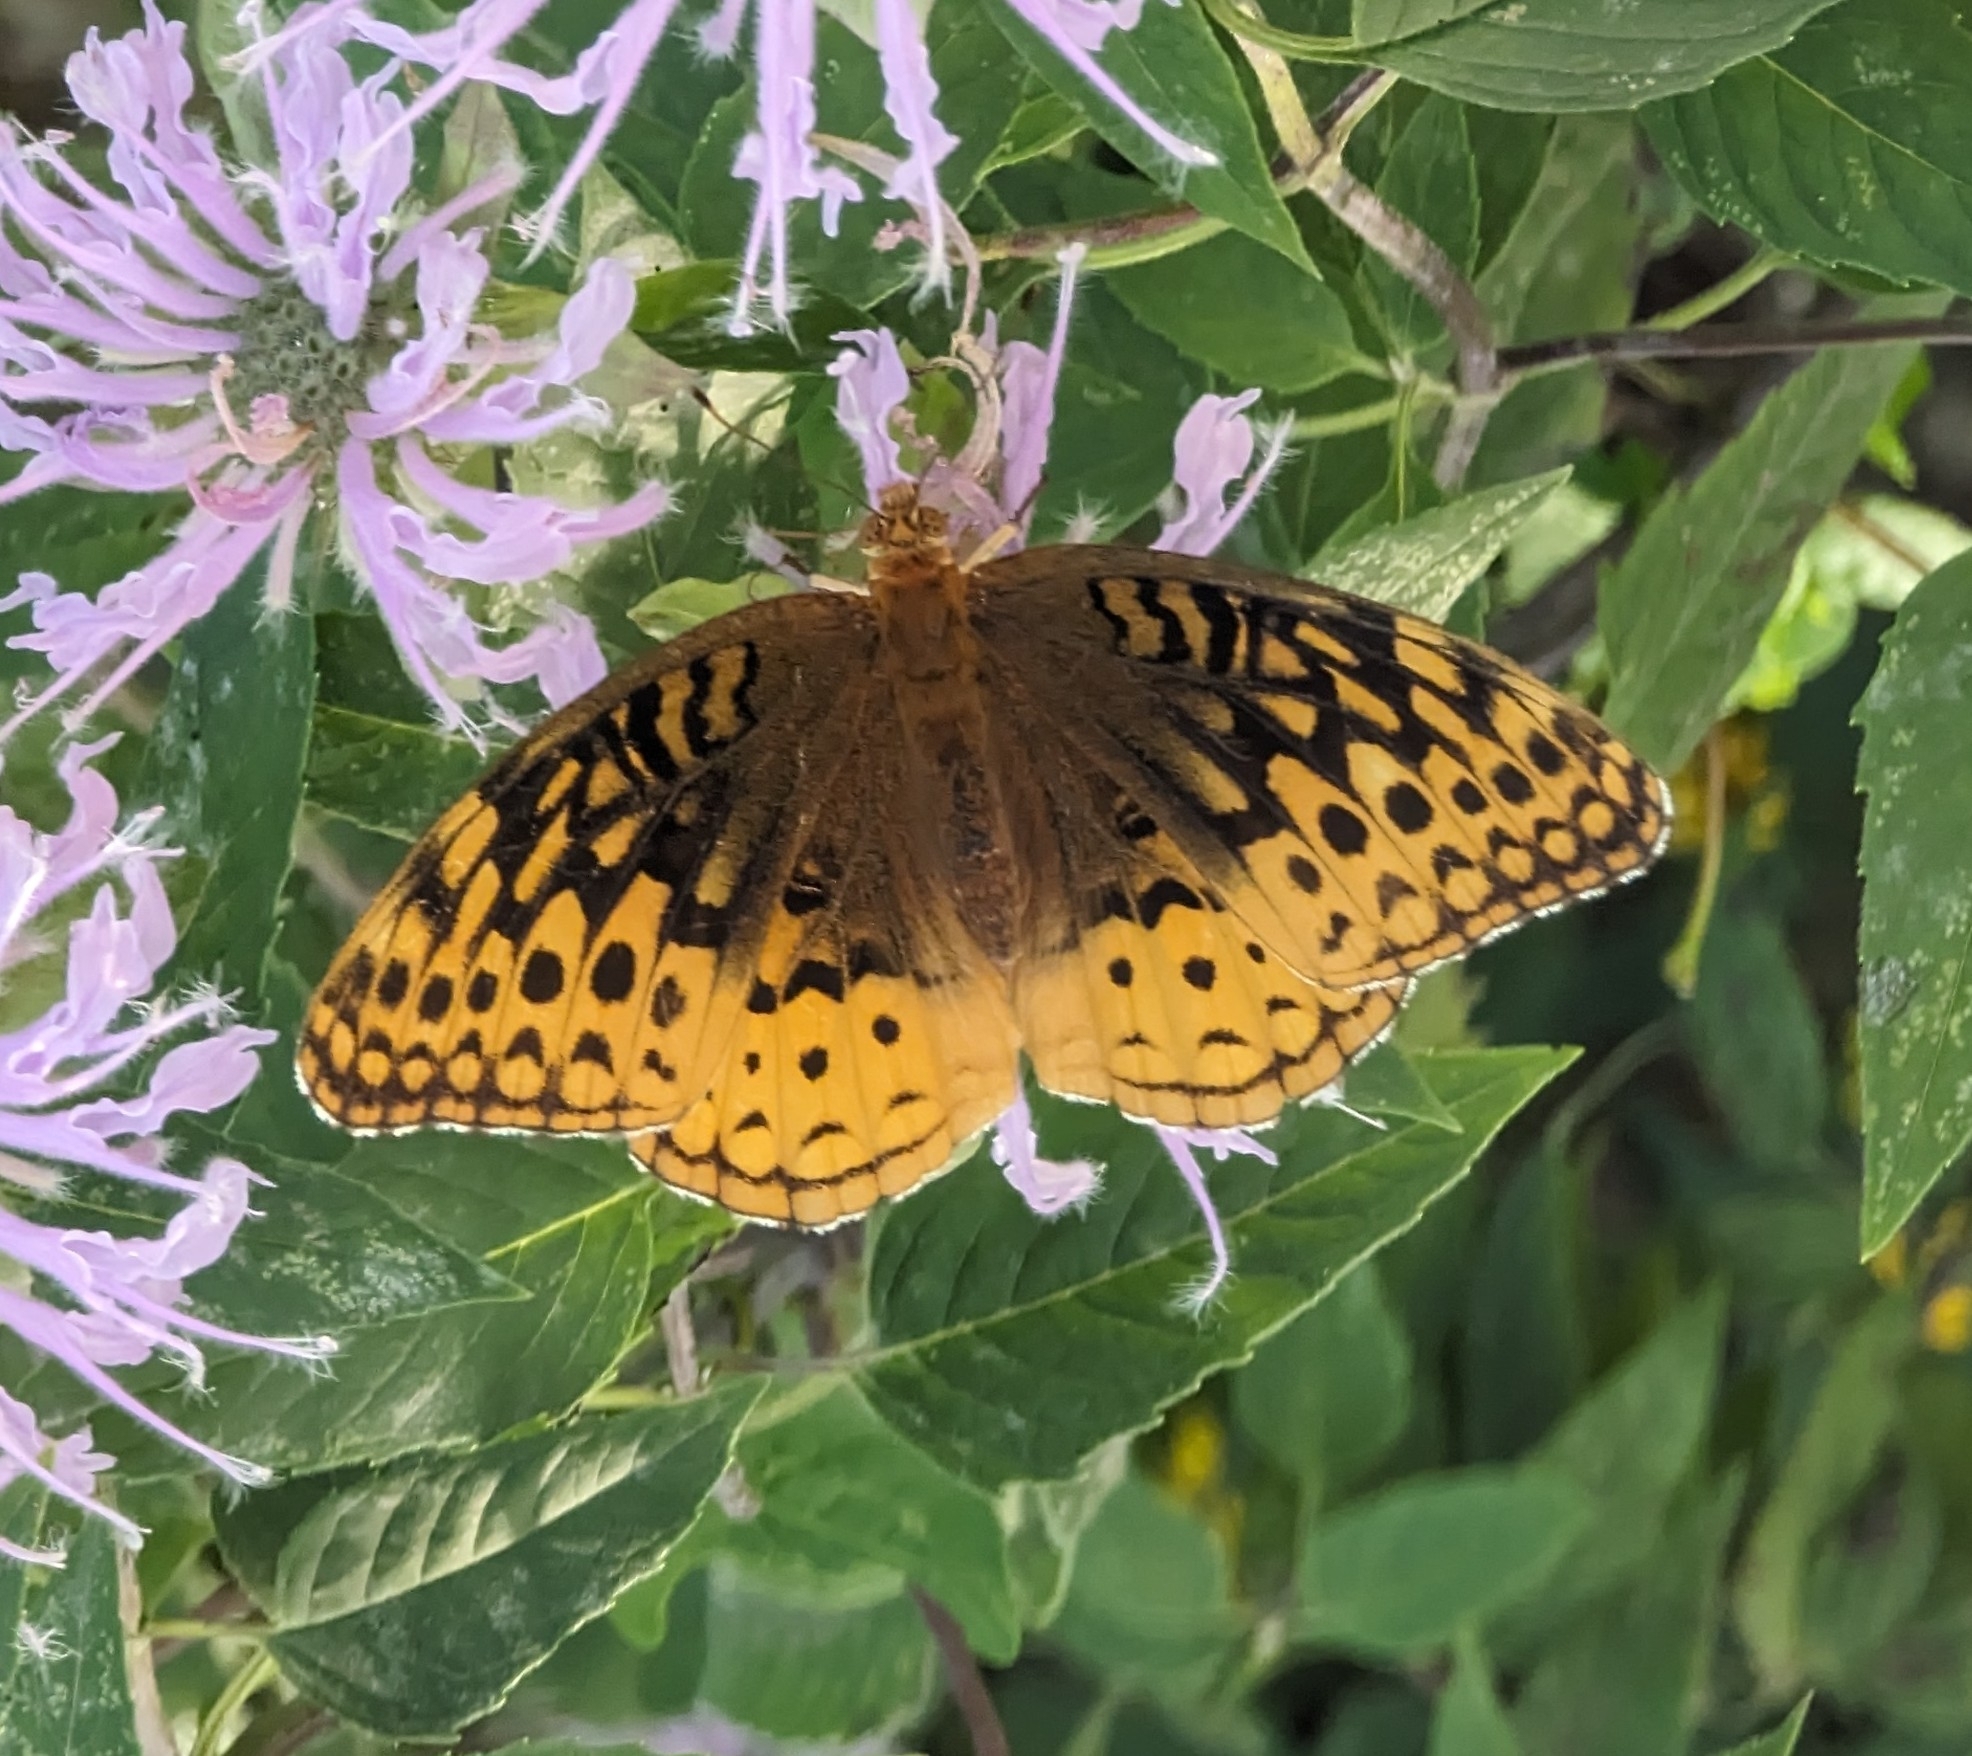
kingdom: Animalia
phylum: Arthropoda
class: Insecta
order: Lepidoptera
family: Nymphalidae
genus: Speyeria
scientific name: Speyeria cybele
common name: Great spangled fritillary
